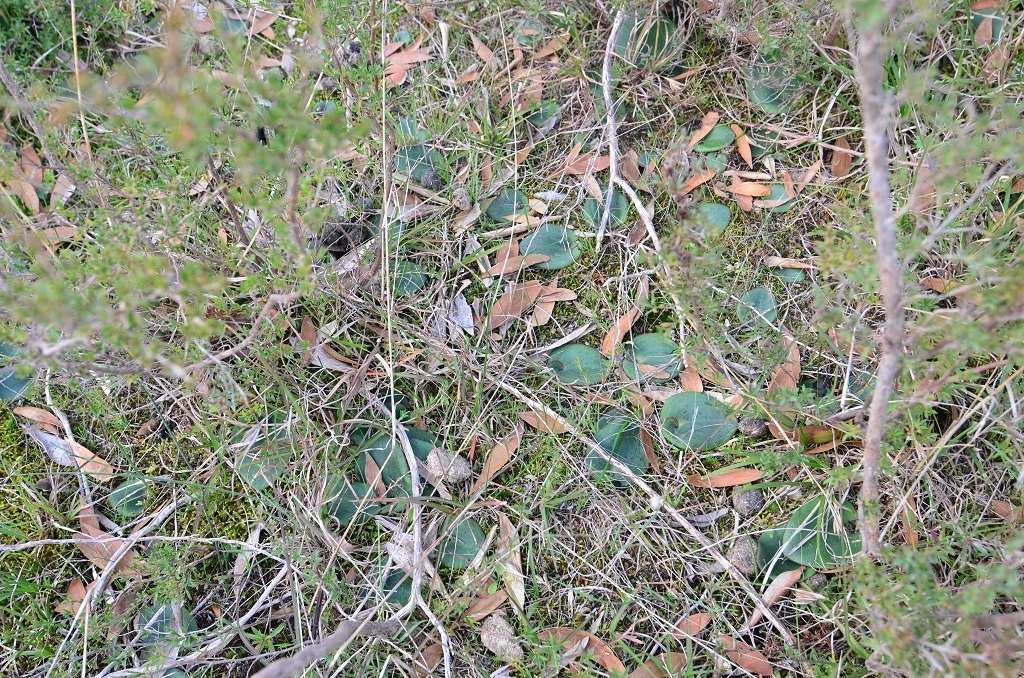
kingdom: Plantae
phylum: Tracheophyta
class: Liliopsida
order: Asparagales
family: Orchidaceae
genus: Pyrorchis
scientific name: Pyrorchis nigricans
